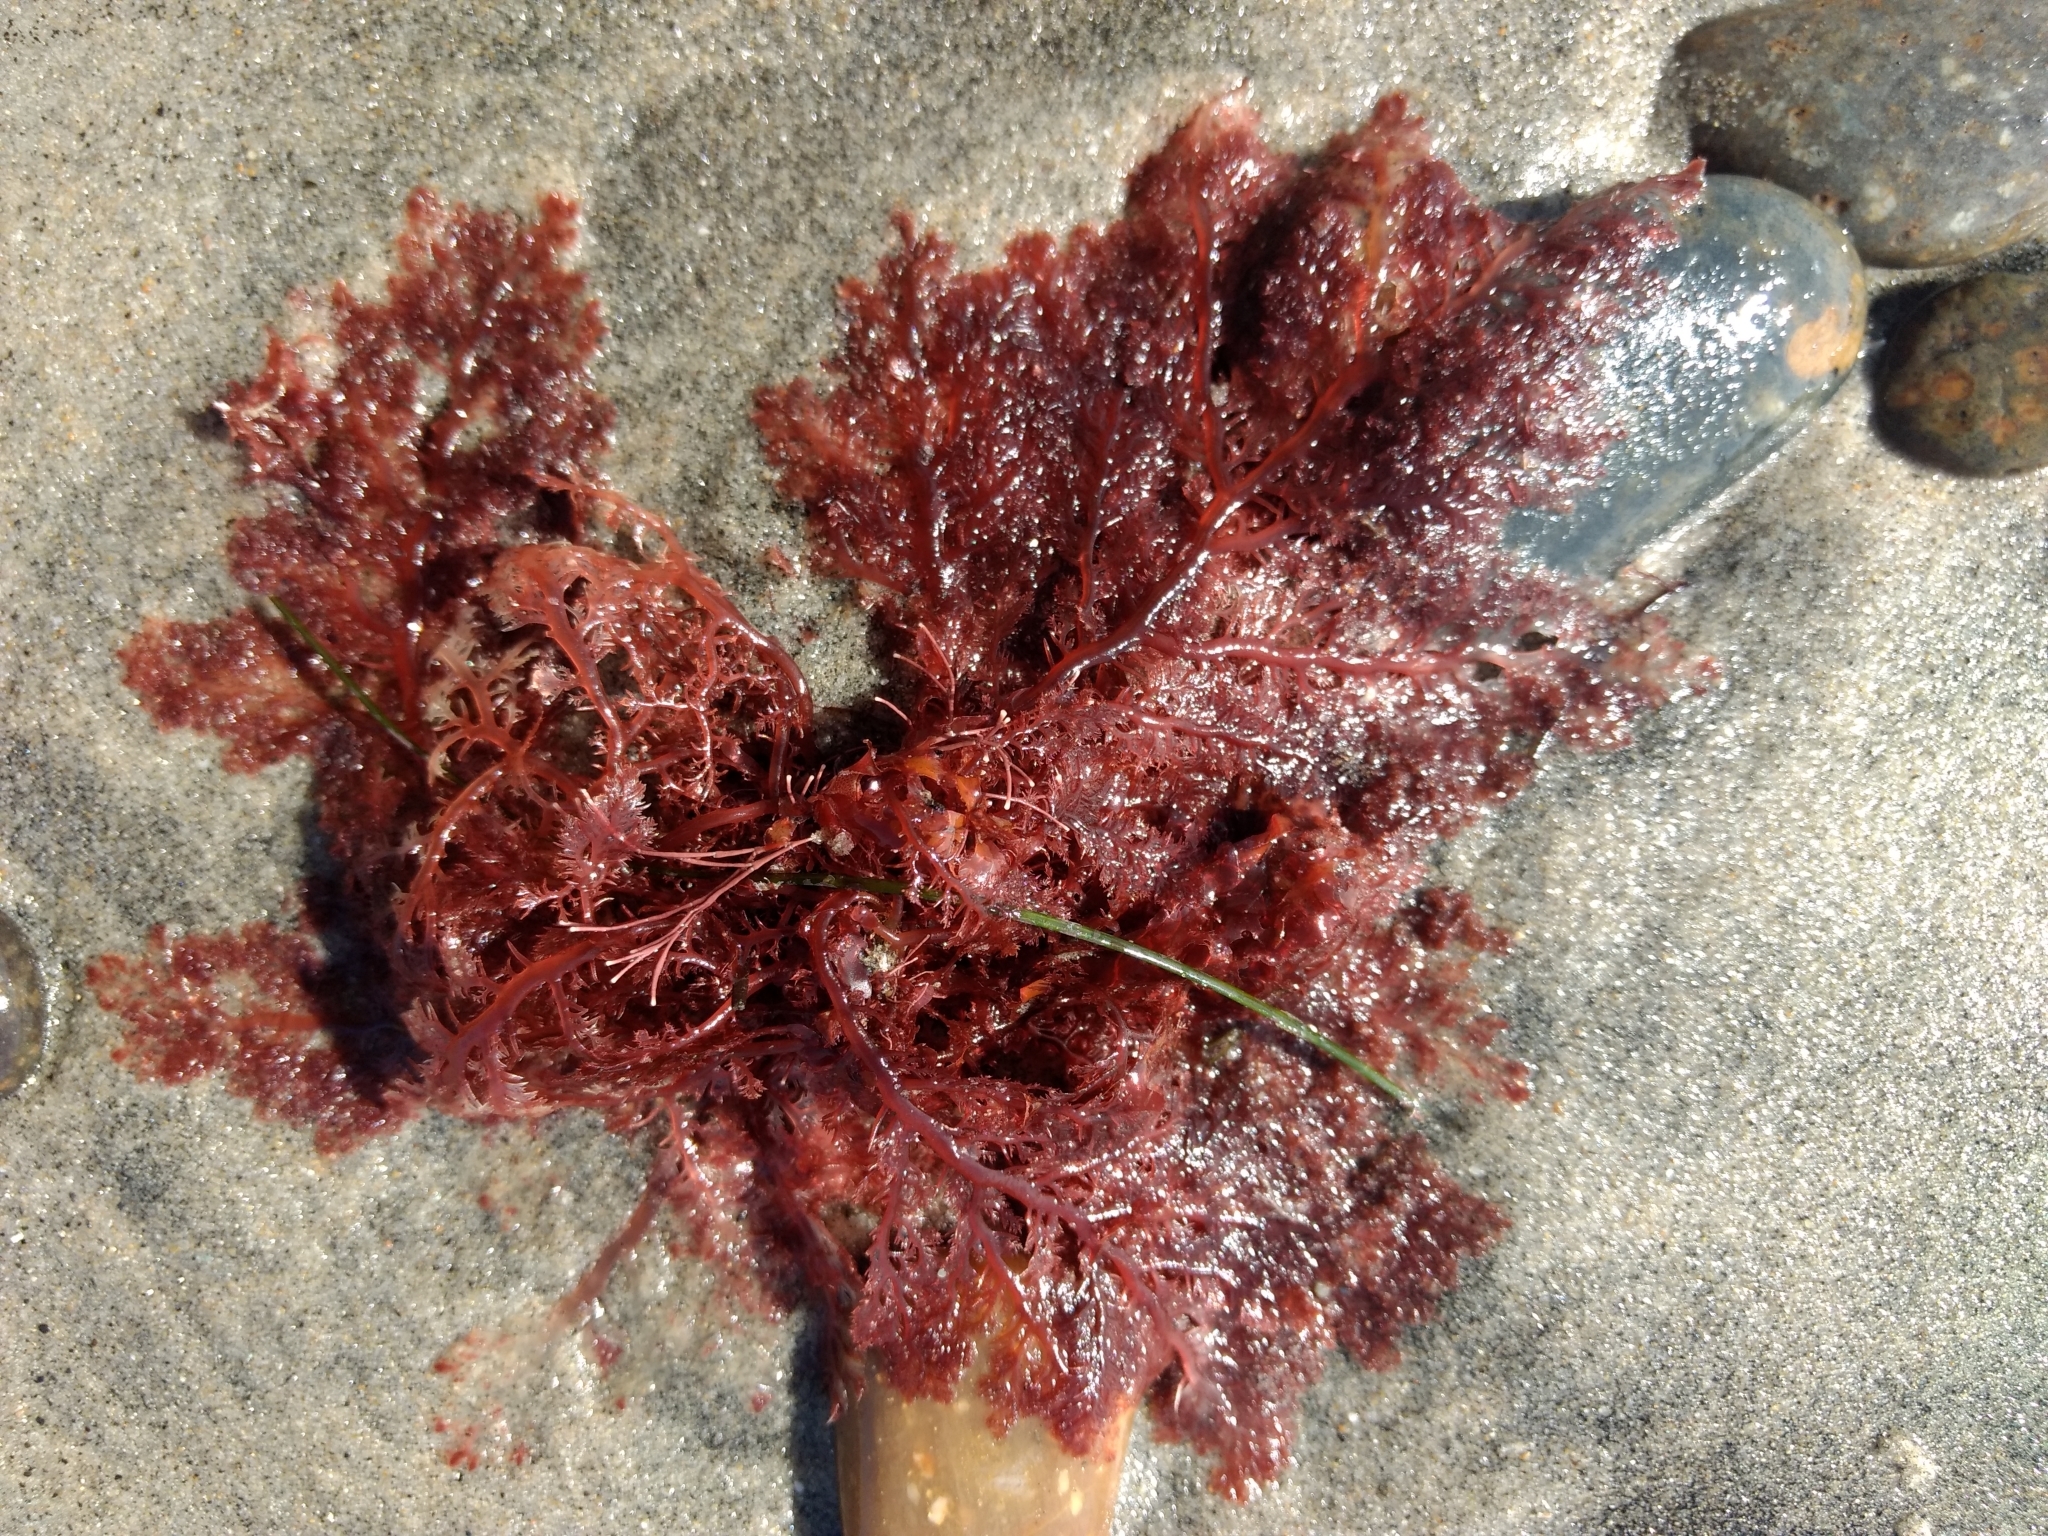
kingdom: Plantae
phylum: Rhodophyta
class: Florideophyceae
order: Plocamiales
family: Plocamiaceae
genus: Plocamium
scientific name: Plocamium cartilagineum
